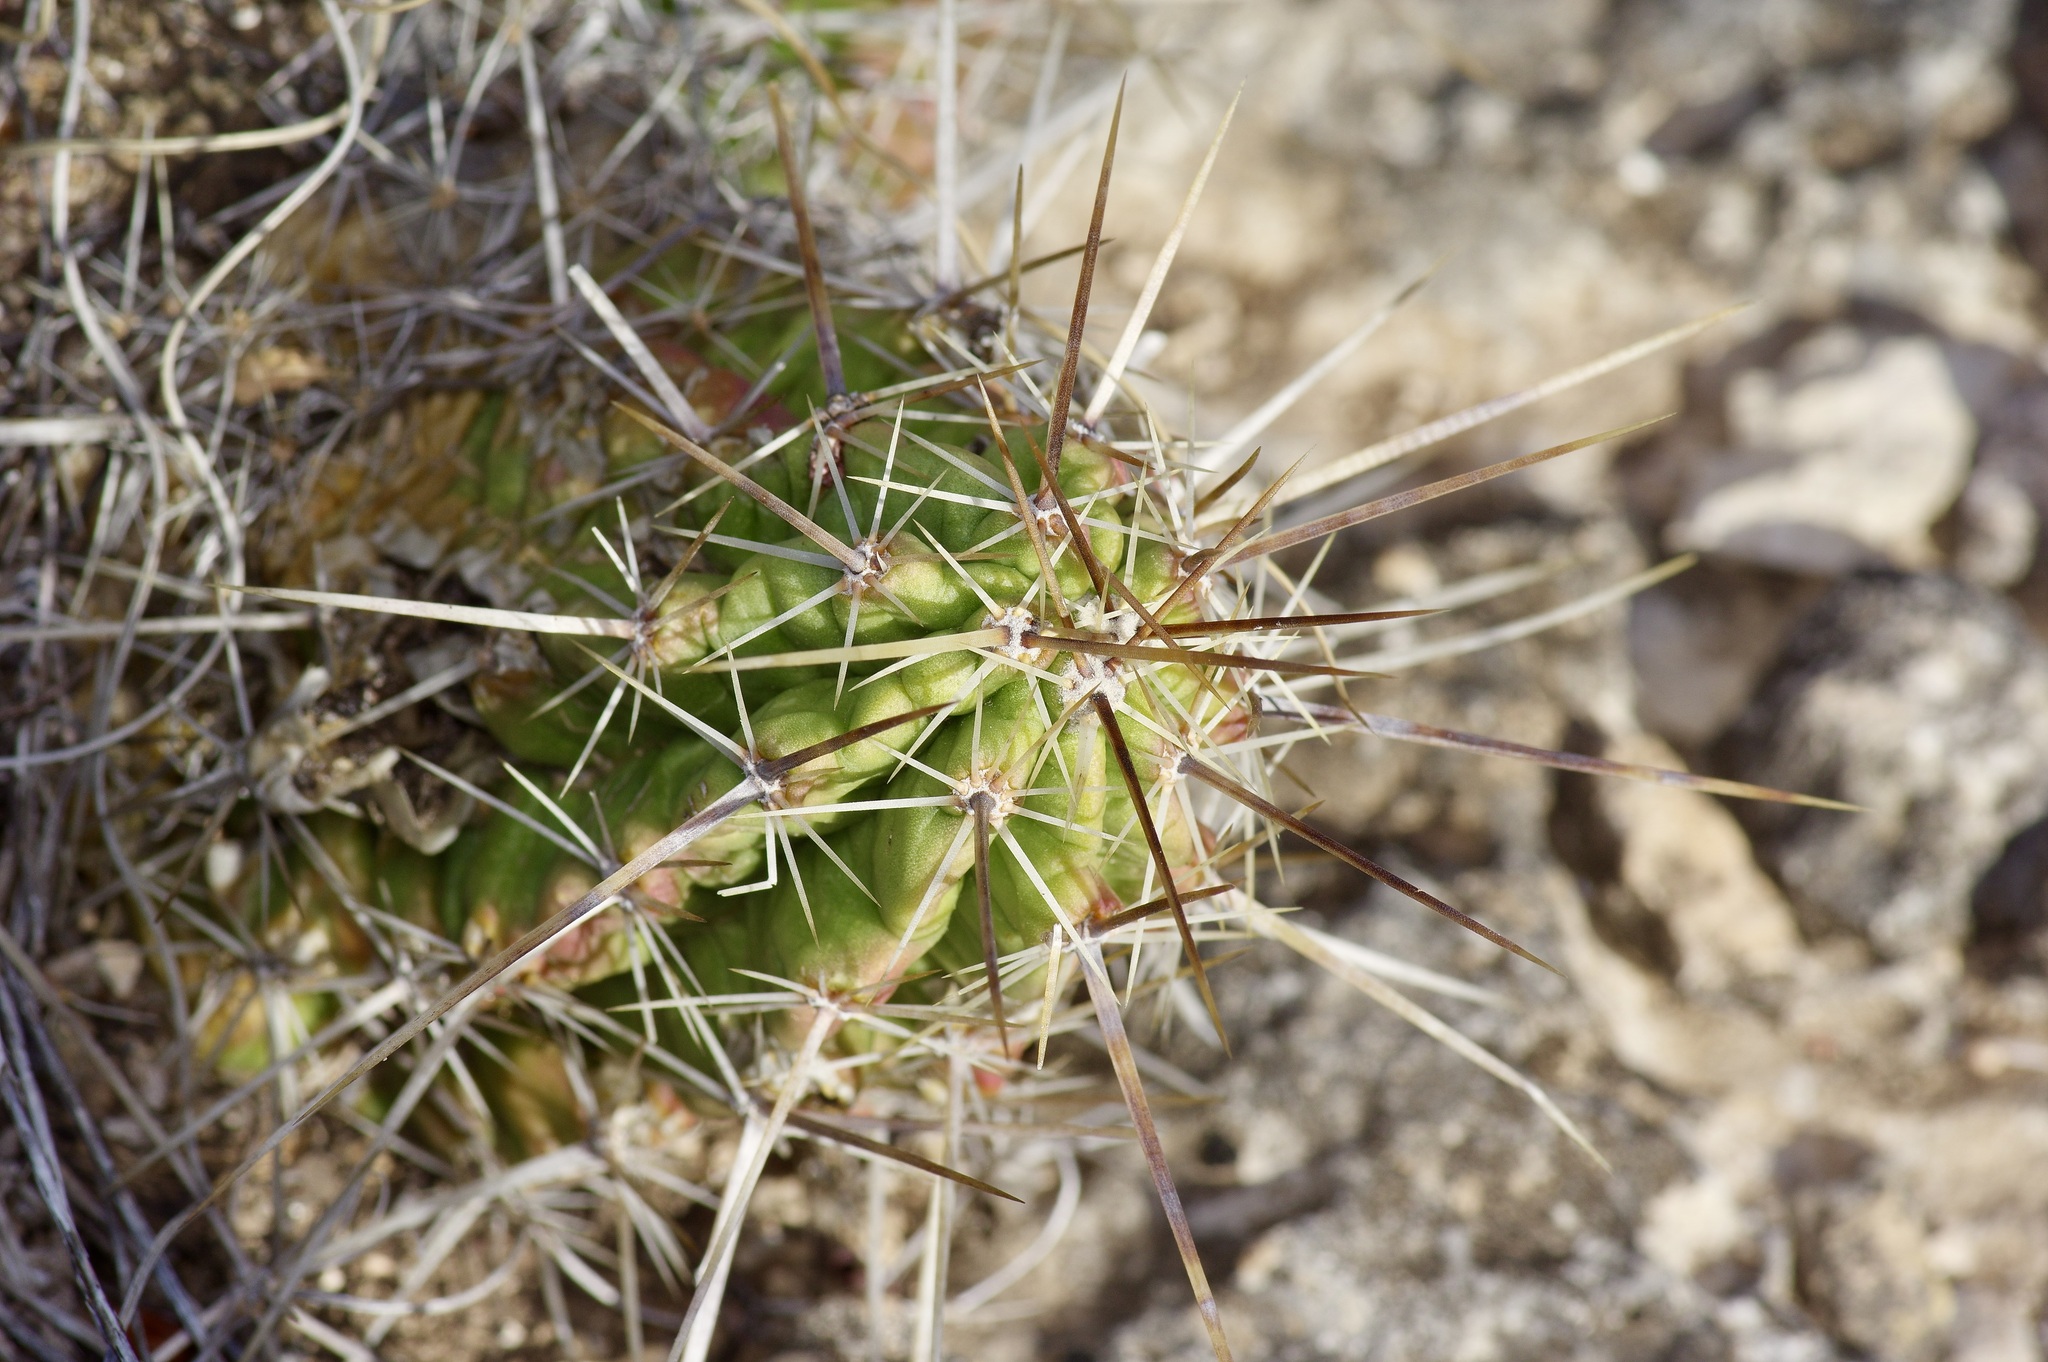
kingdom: Plantae
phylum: Tracheophyta
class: Magnoliopsida
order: Caryophyllales
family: Cactaceae
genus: Echinocereus
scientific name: Echinocereus enneacanthus
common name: Pitaya
